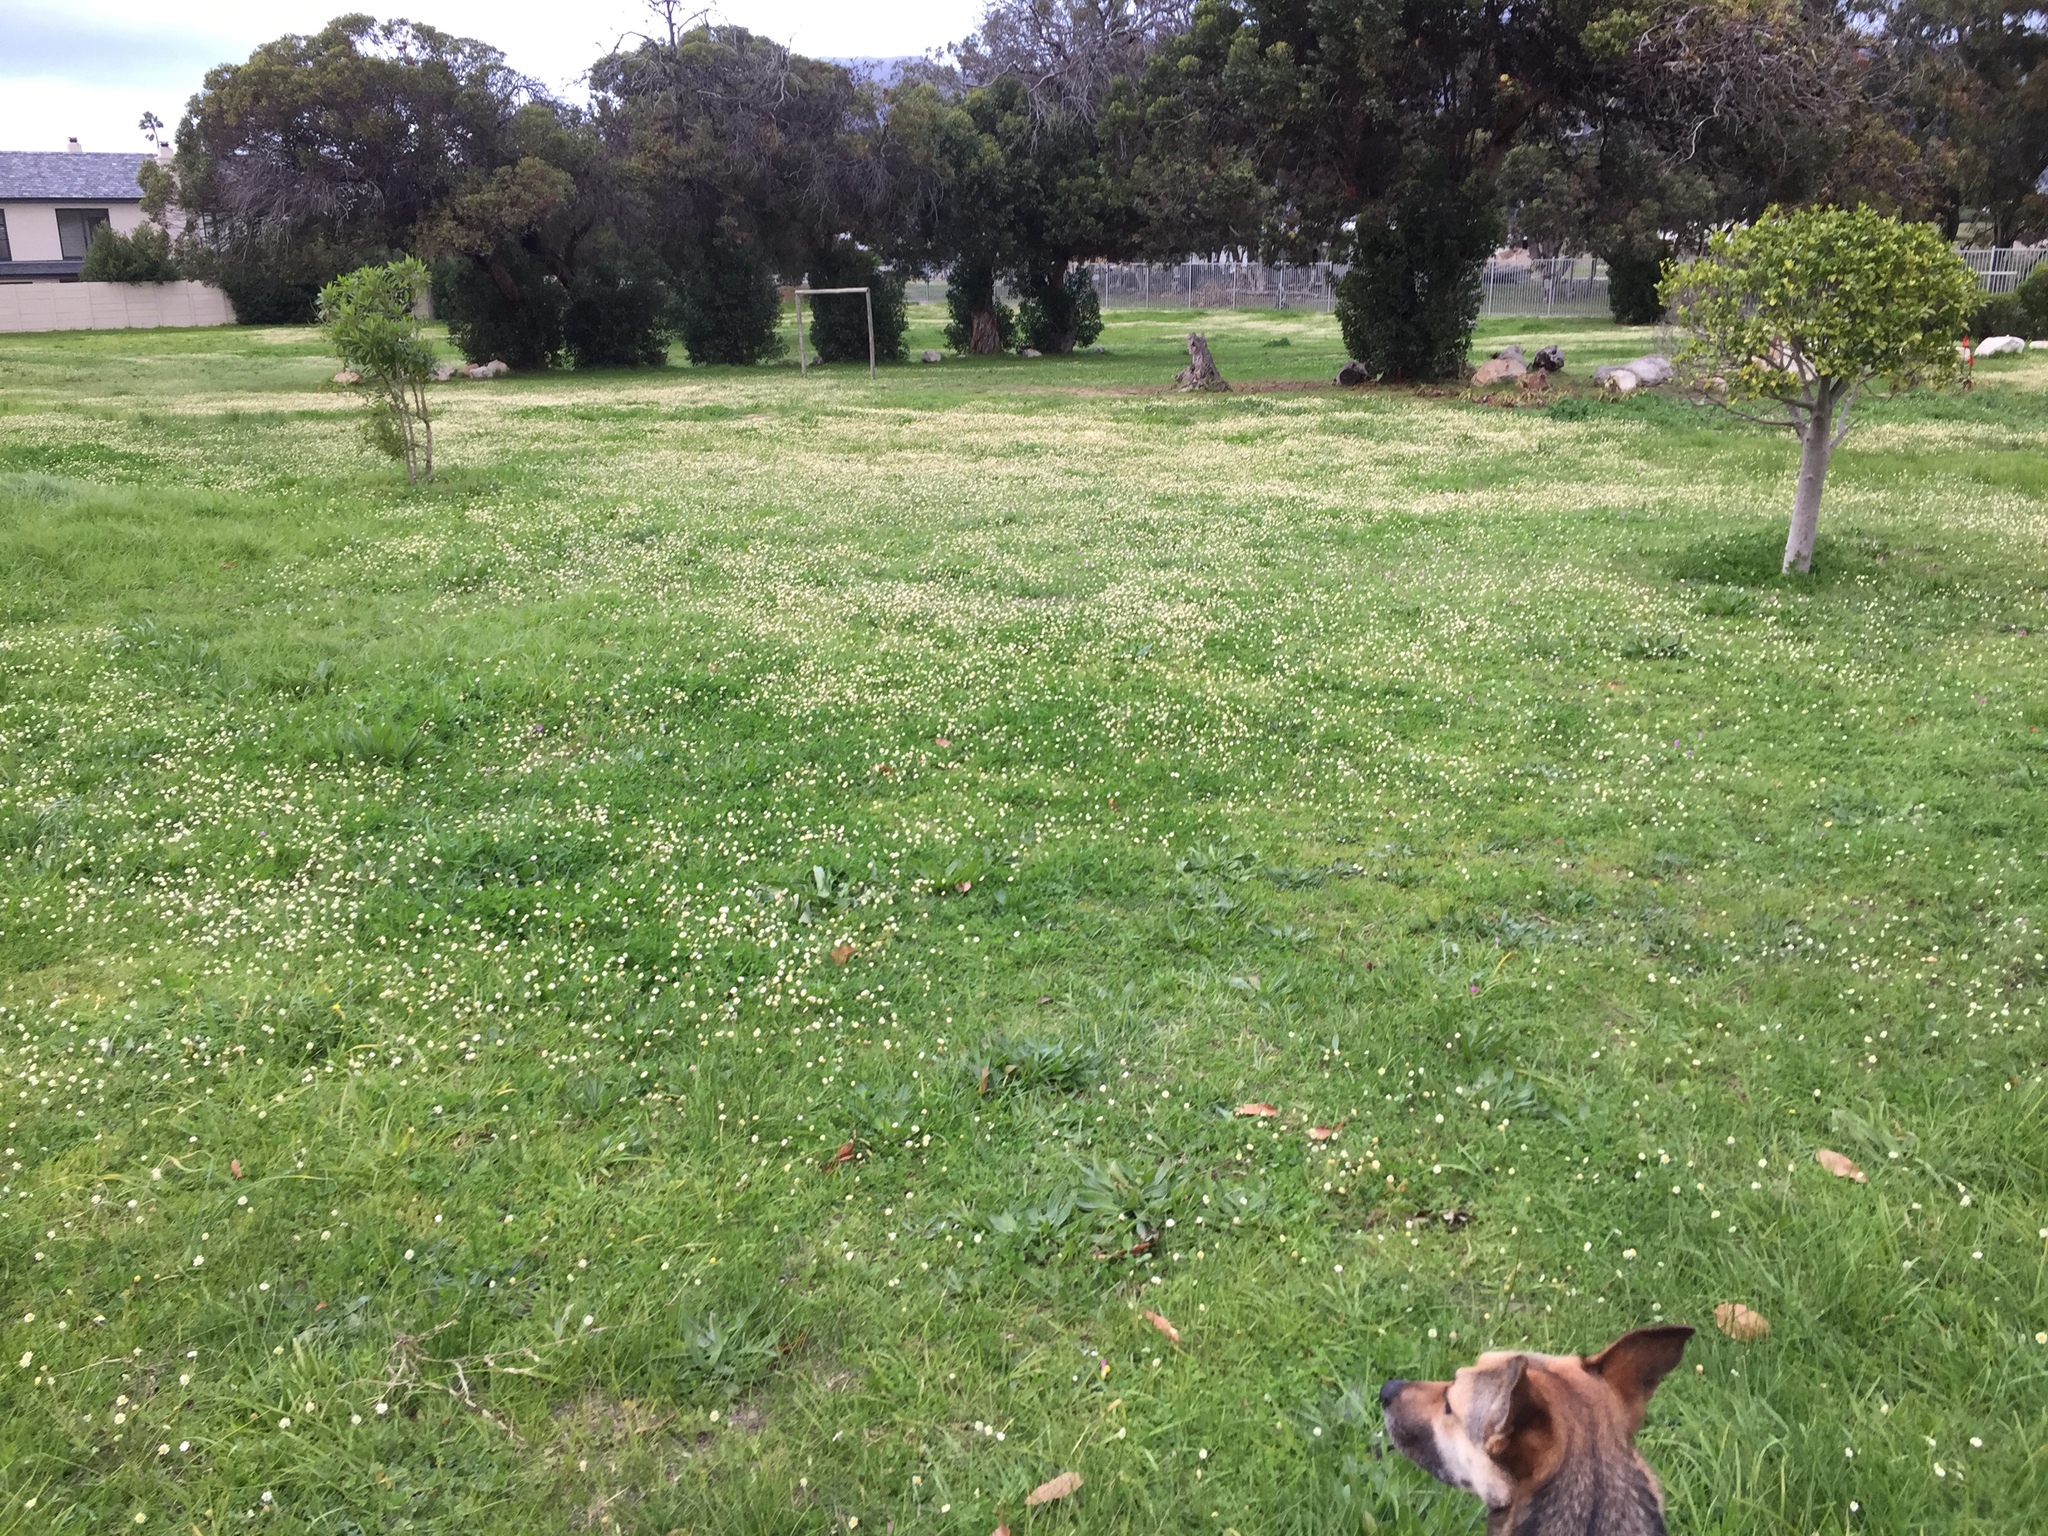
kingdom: Plantae
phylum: Tracheophyta
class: Magnoliopsida
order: Asterales
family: Asteraceae
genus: Cotula
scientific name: Cotula turbinata
